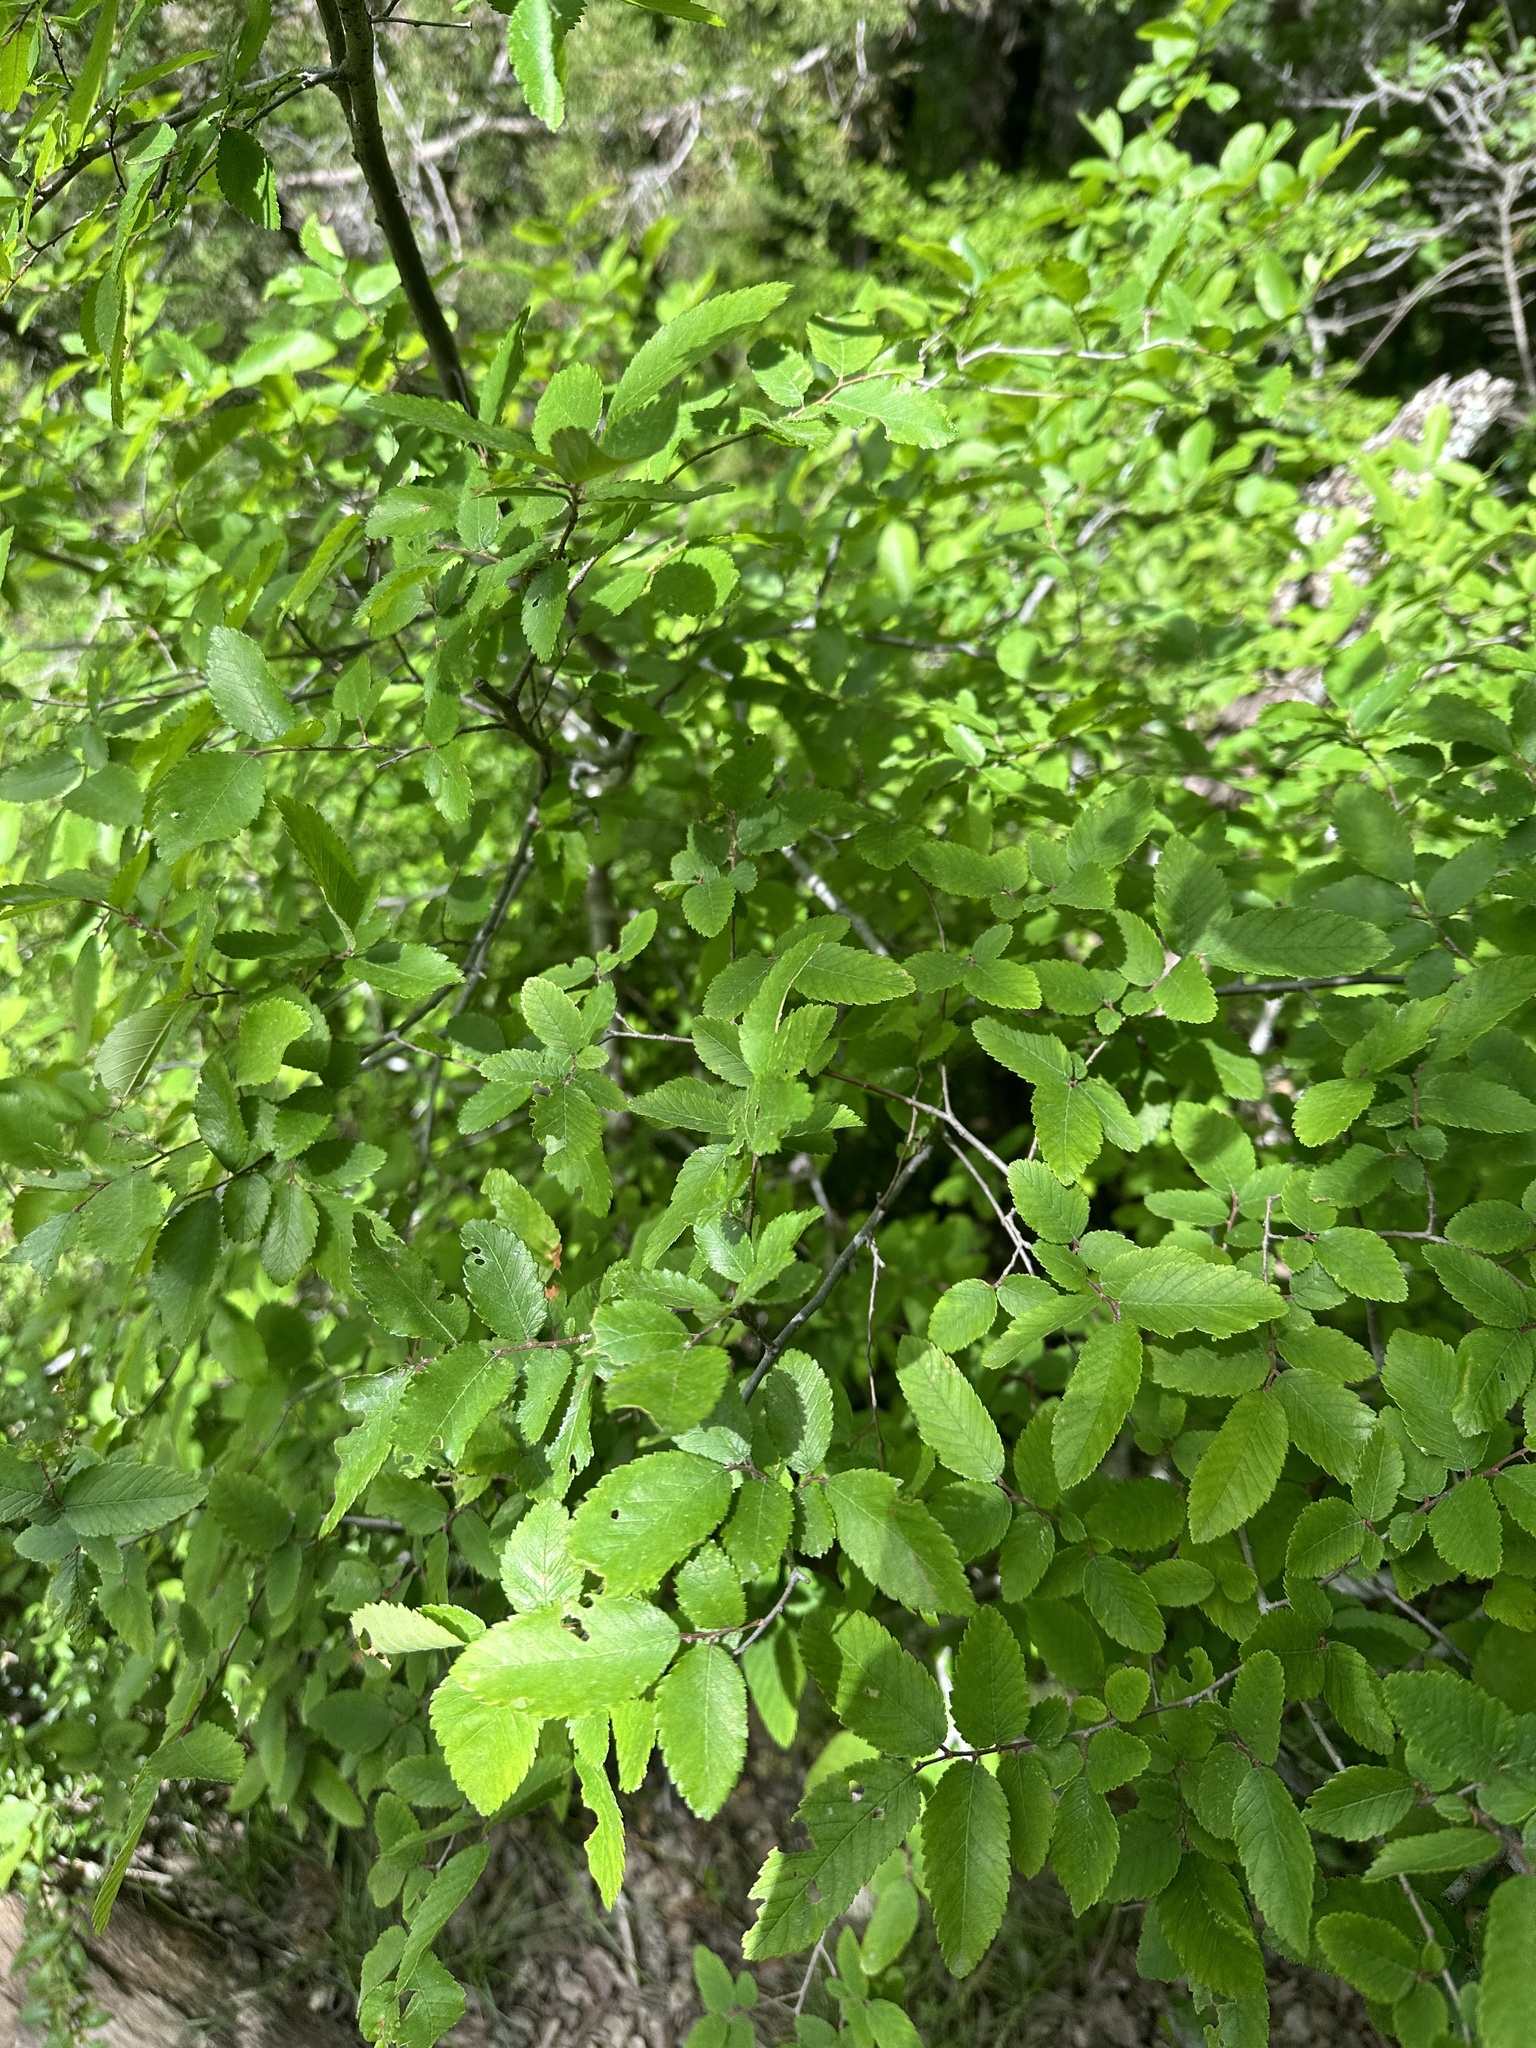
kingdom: Plantae
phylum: Tracheophyta
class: Magnoliopsida
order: Rosales
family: Ulmaceae
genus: Ulmus
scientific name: Ulmus crassifolia
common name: Basket elm
